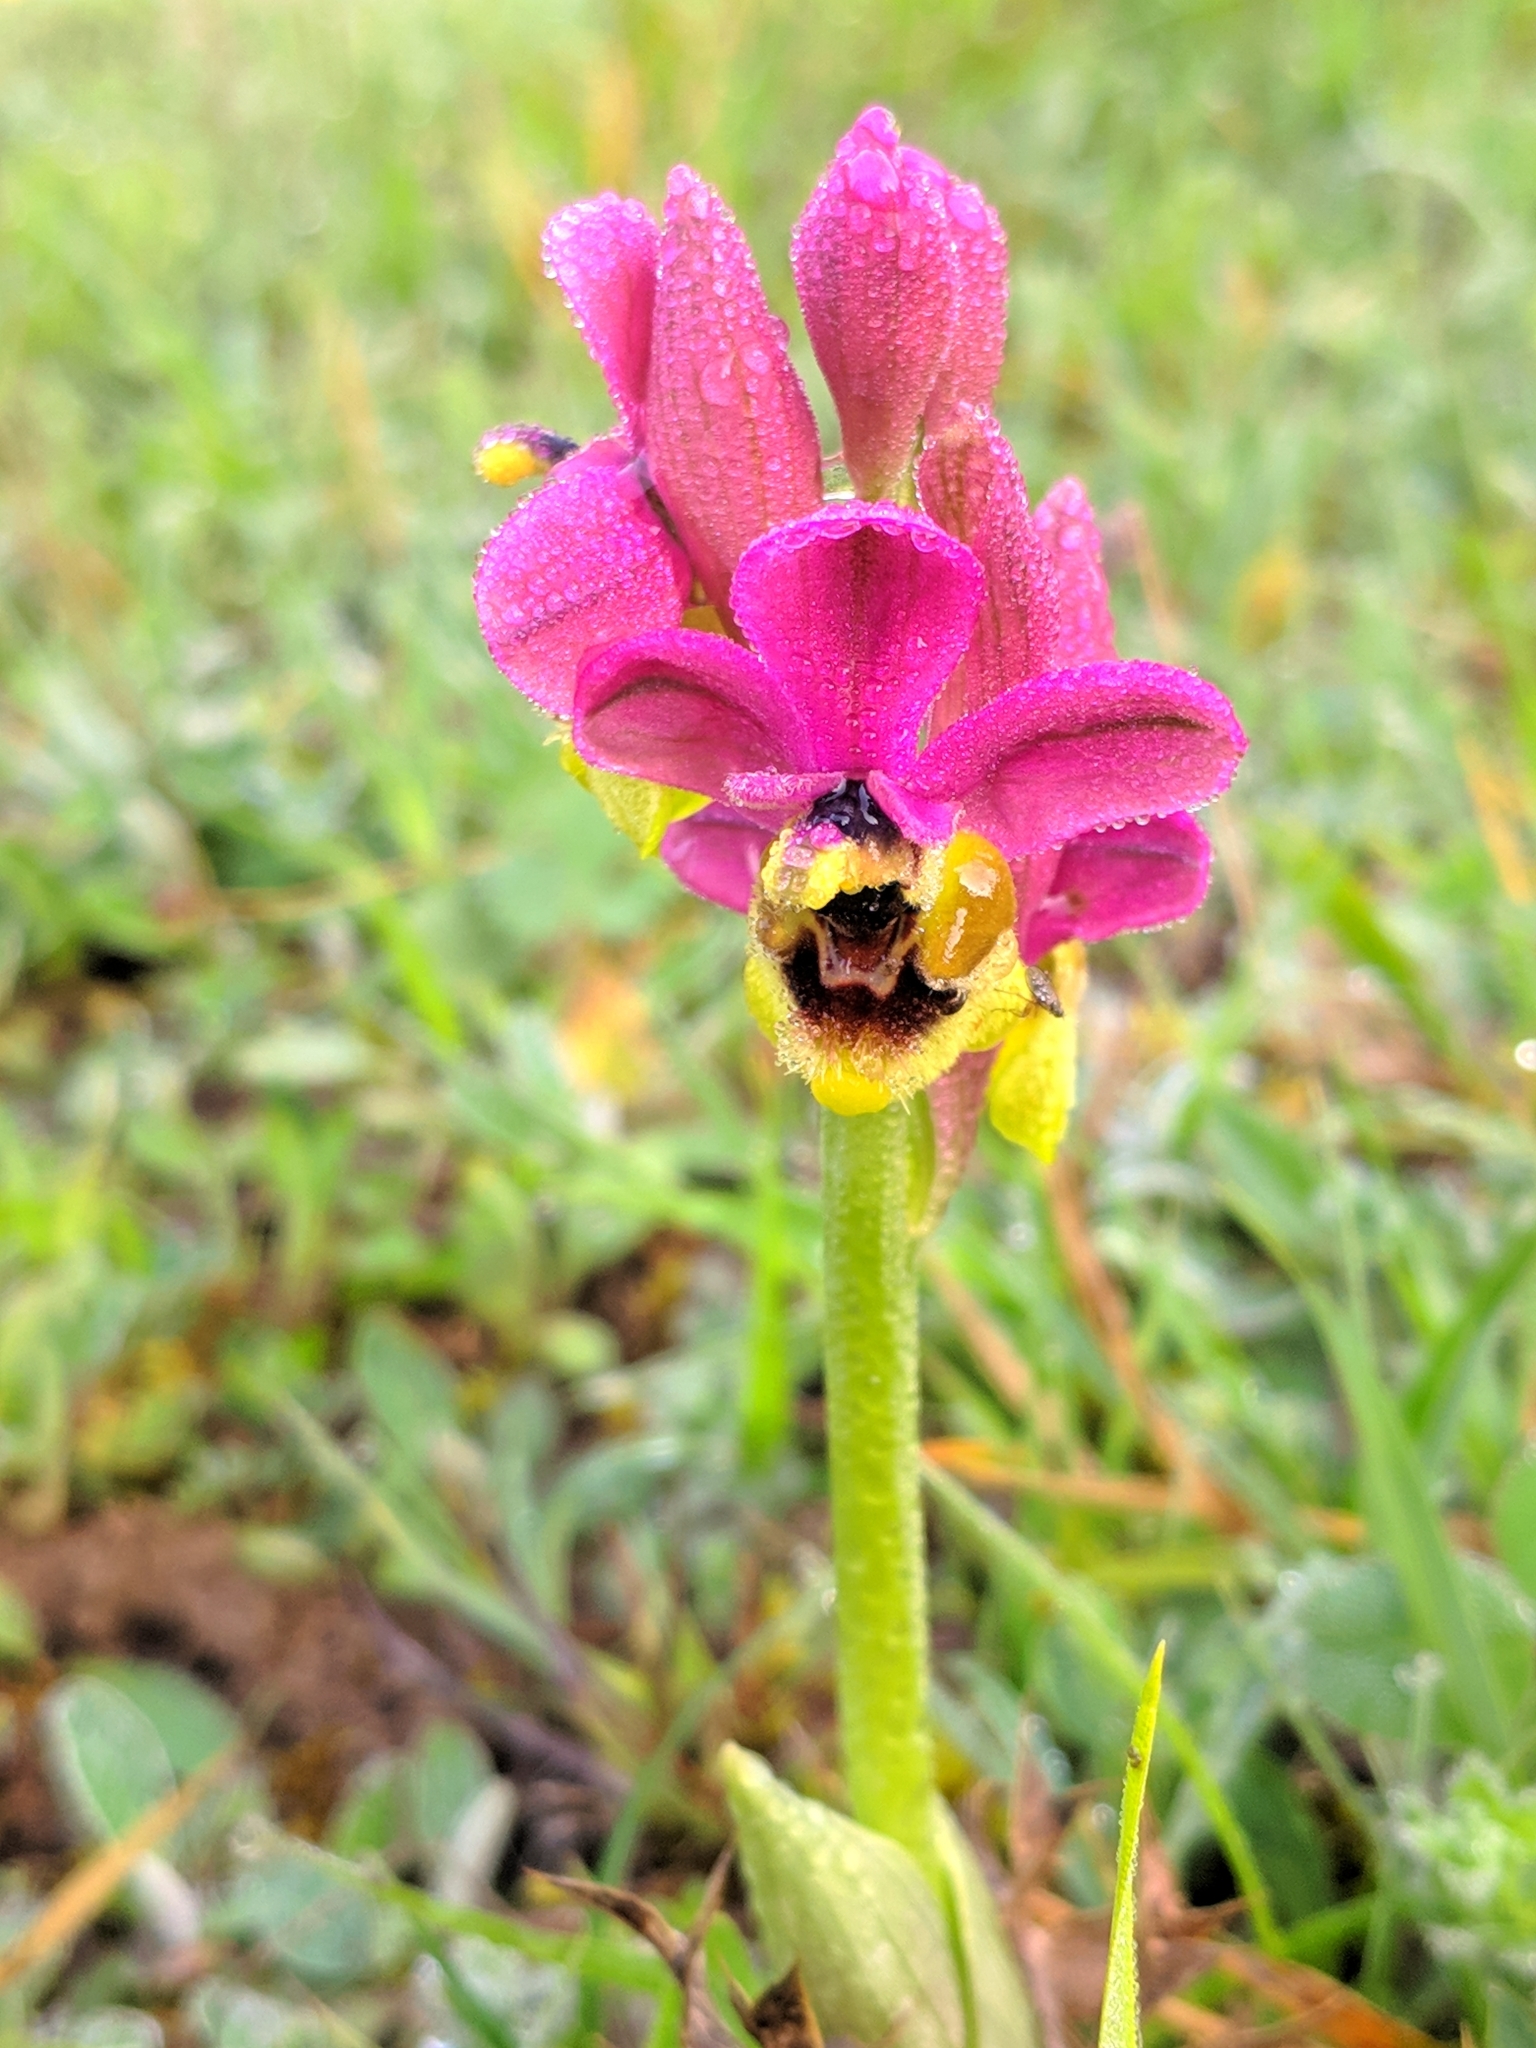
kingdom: Plantae
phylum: Tracheophyta
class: Liliopsida
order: Asparagales
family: Orchidaceae
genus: Ophrys
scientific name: Ophrys tenthredinifera
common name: Sawfly orchid
